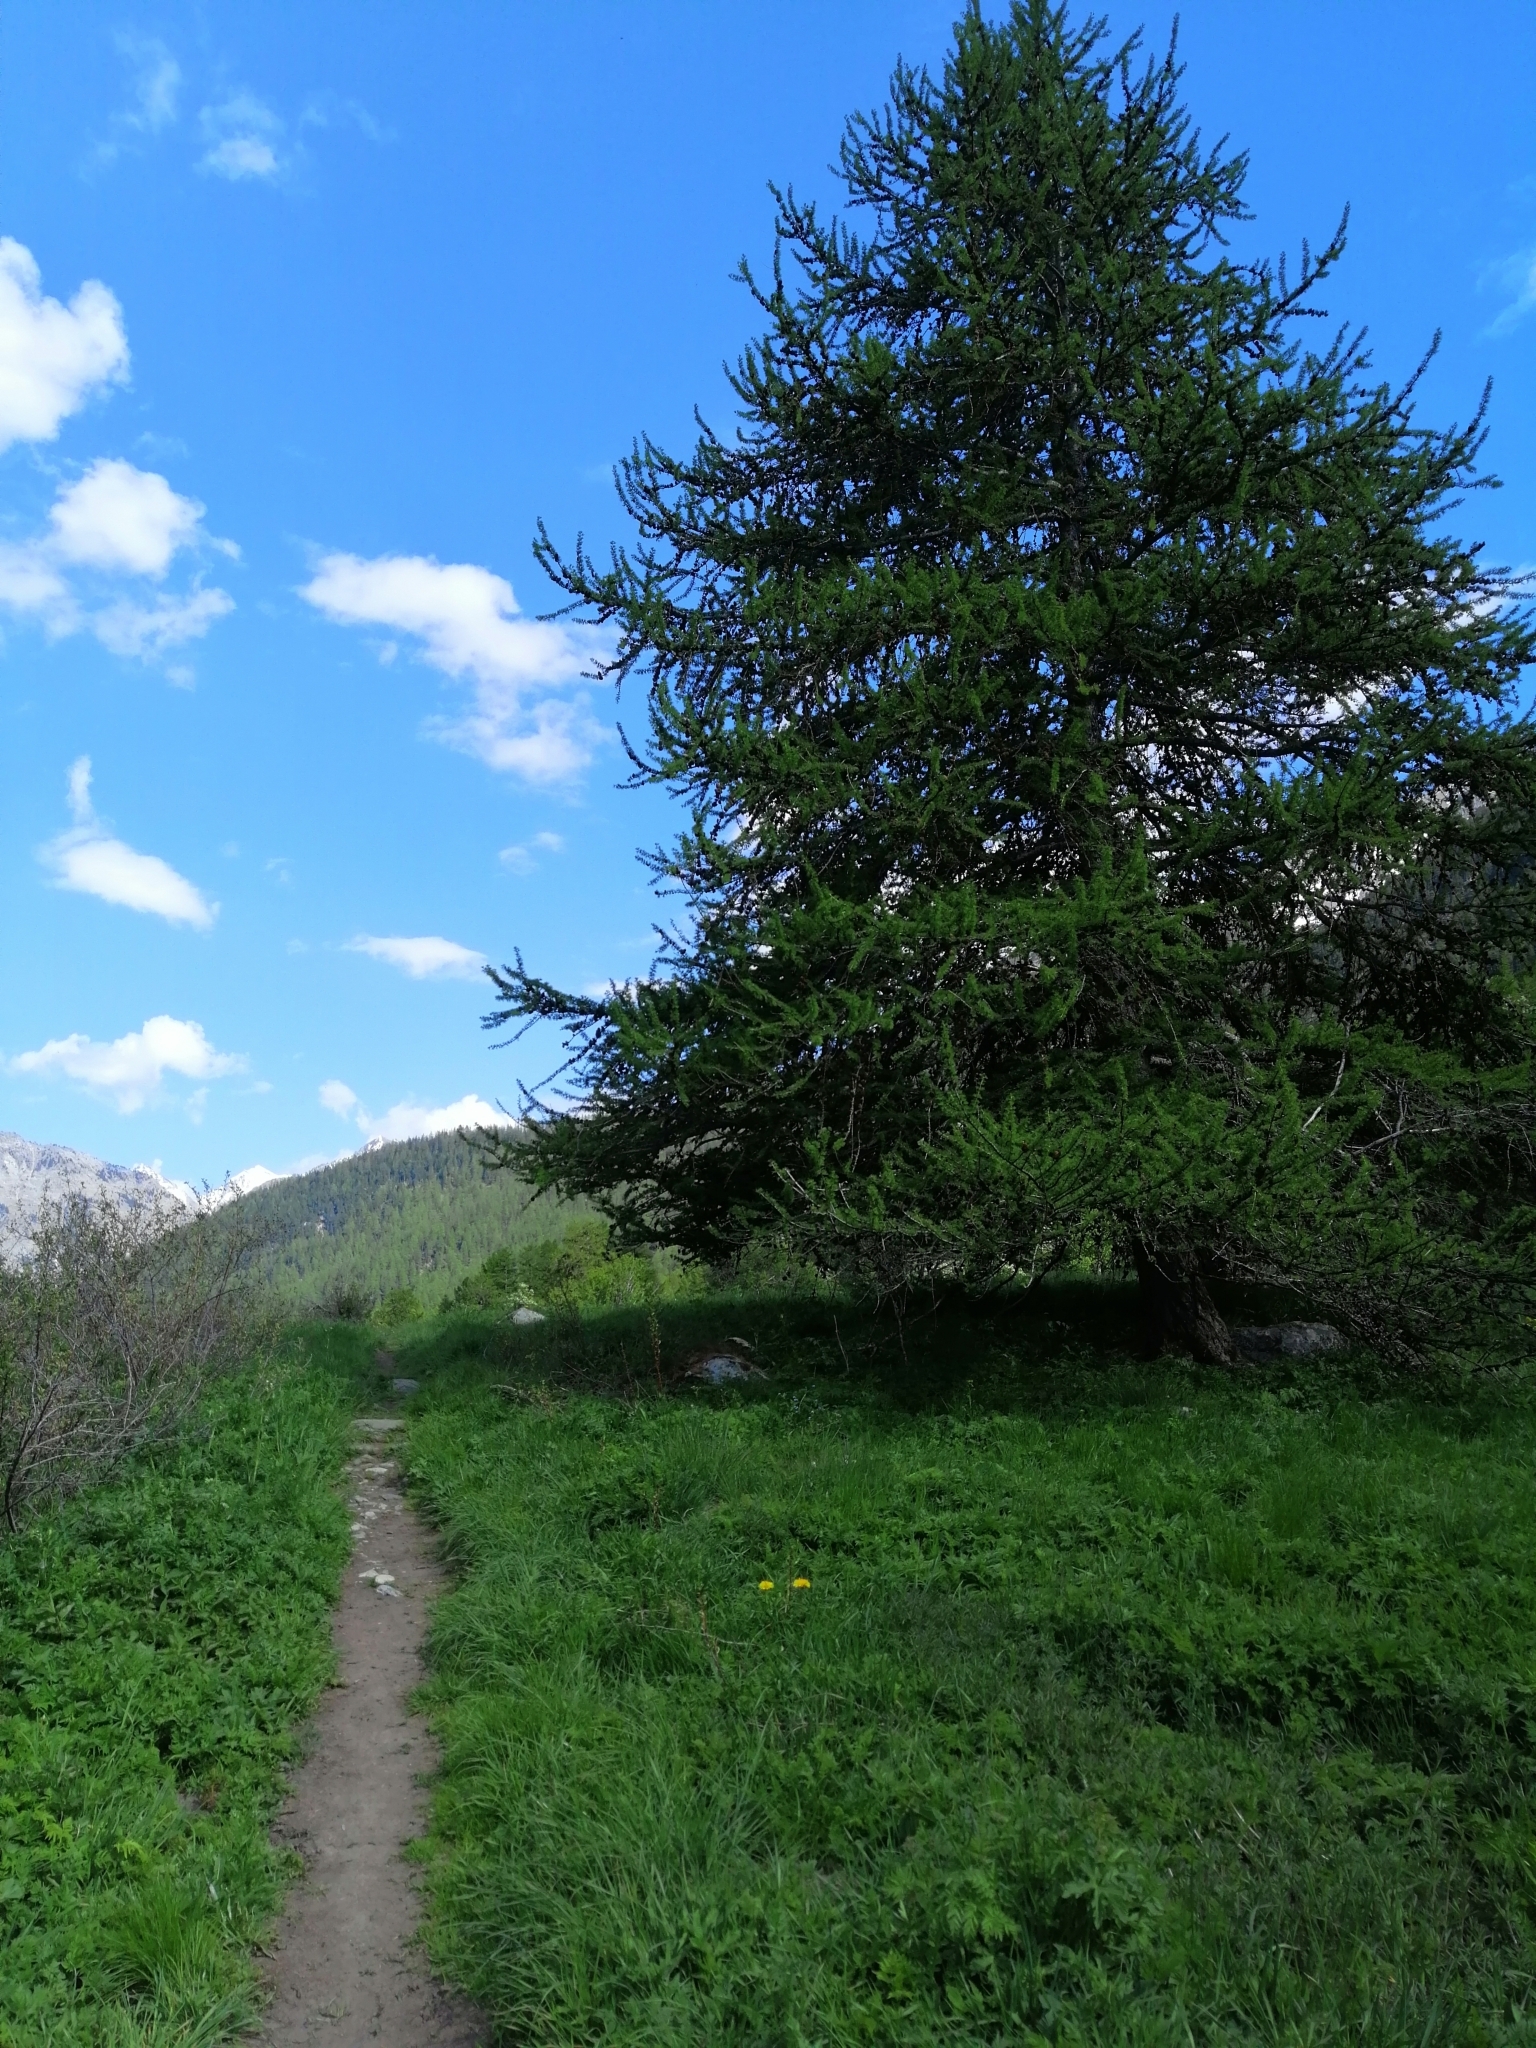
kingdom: Plantae
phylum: Tracheophyta
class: Pinopsida
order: Pinales
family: Pinaceae
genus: Larix
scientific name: Larix decidua
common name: European larch
